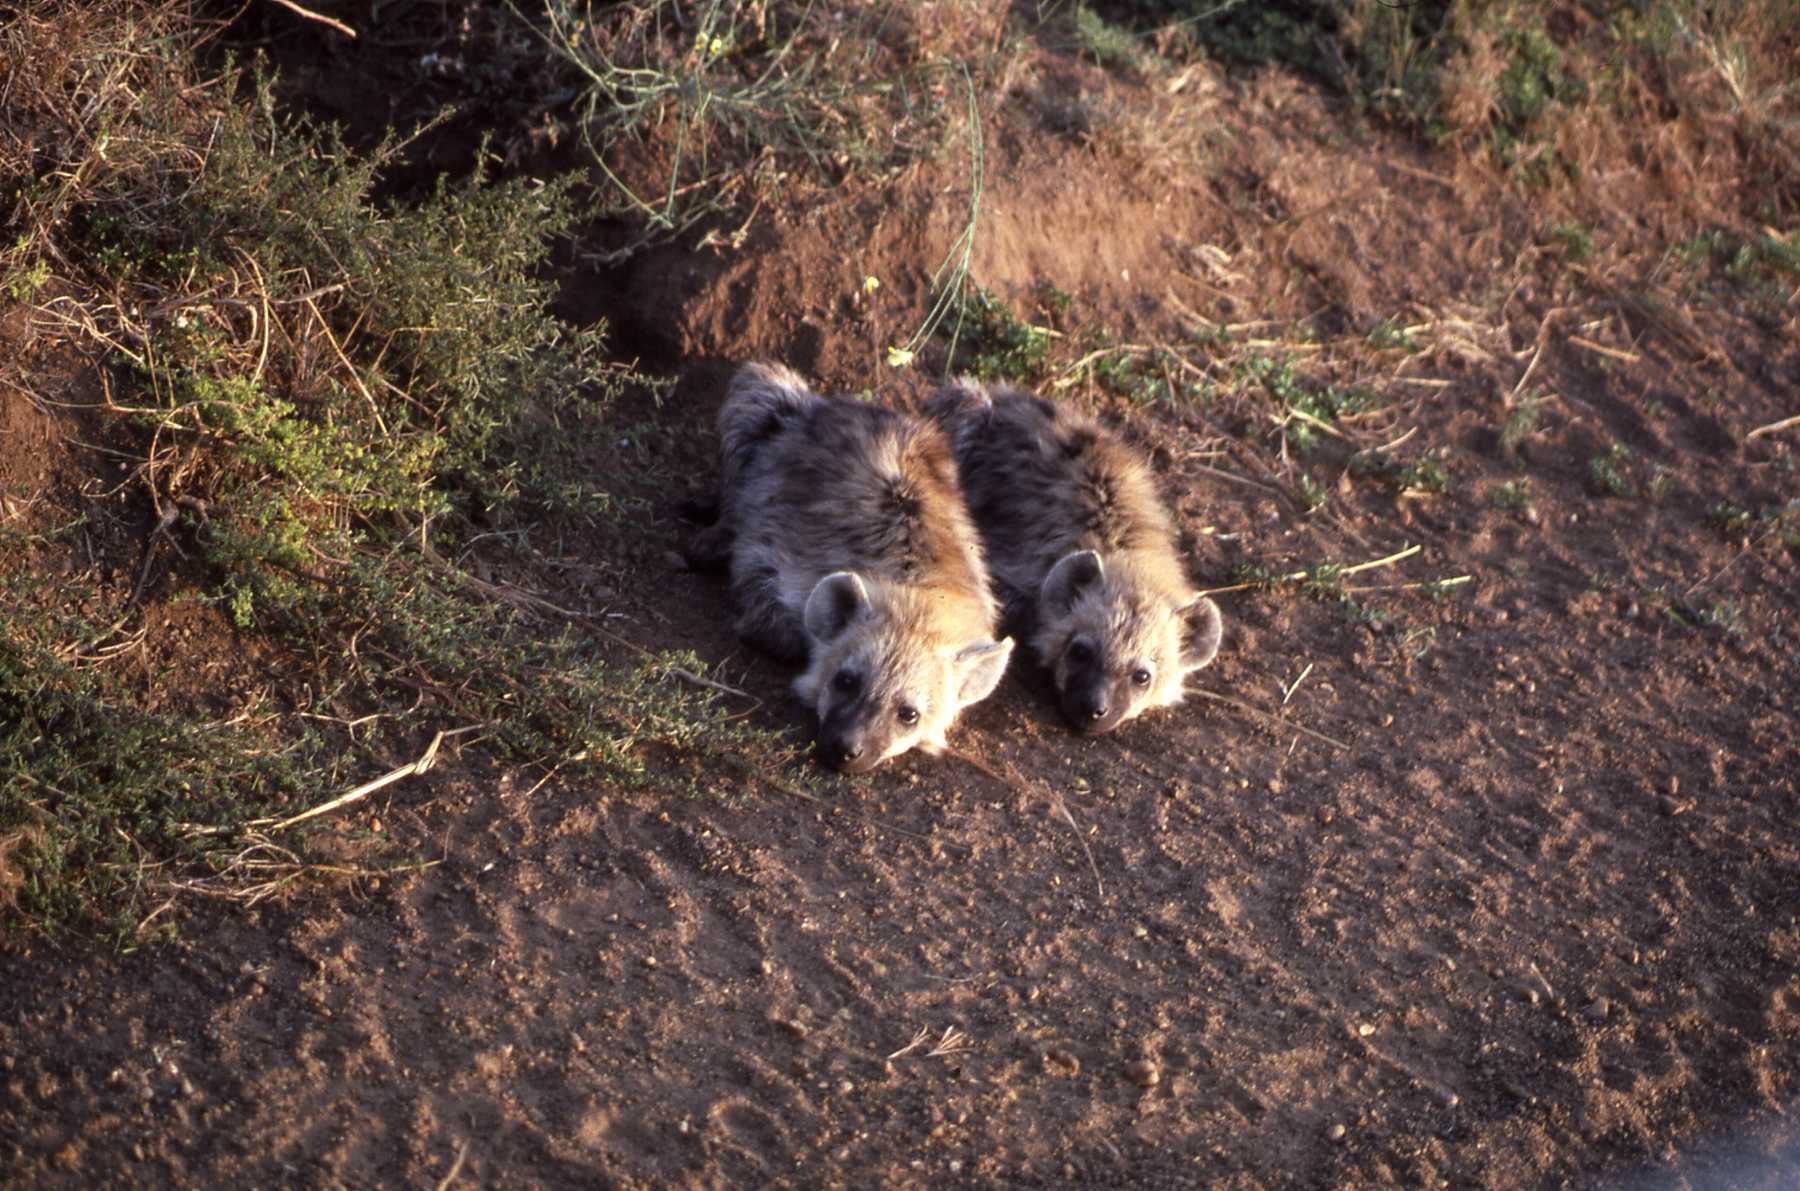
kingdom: Animalia
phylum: Chordata
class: Mammalia
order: Carnivora
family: Hyaenidae
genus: Crocuta
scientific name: Crocuta crocuta
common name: Spotted hyaena
